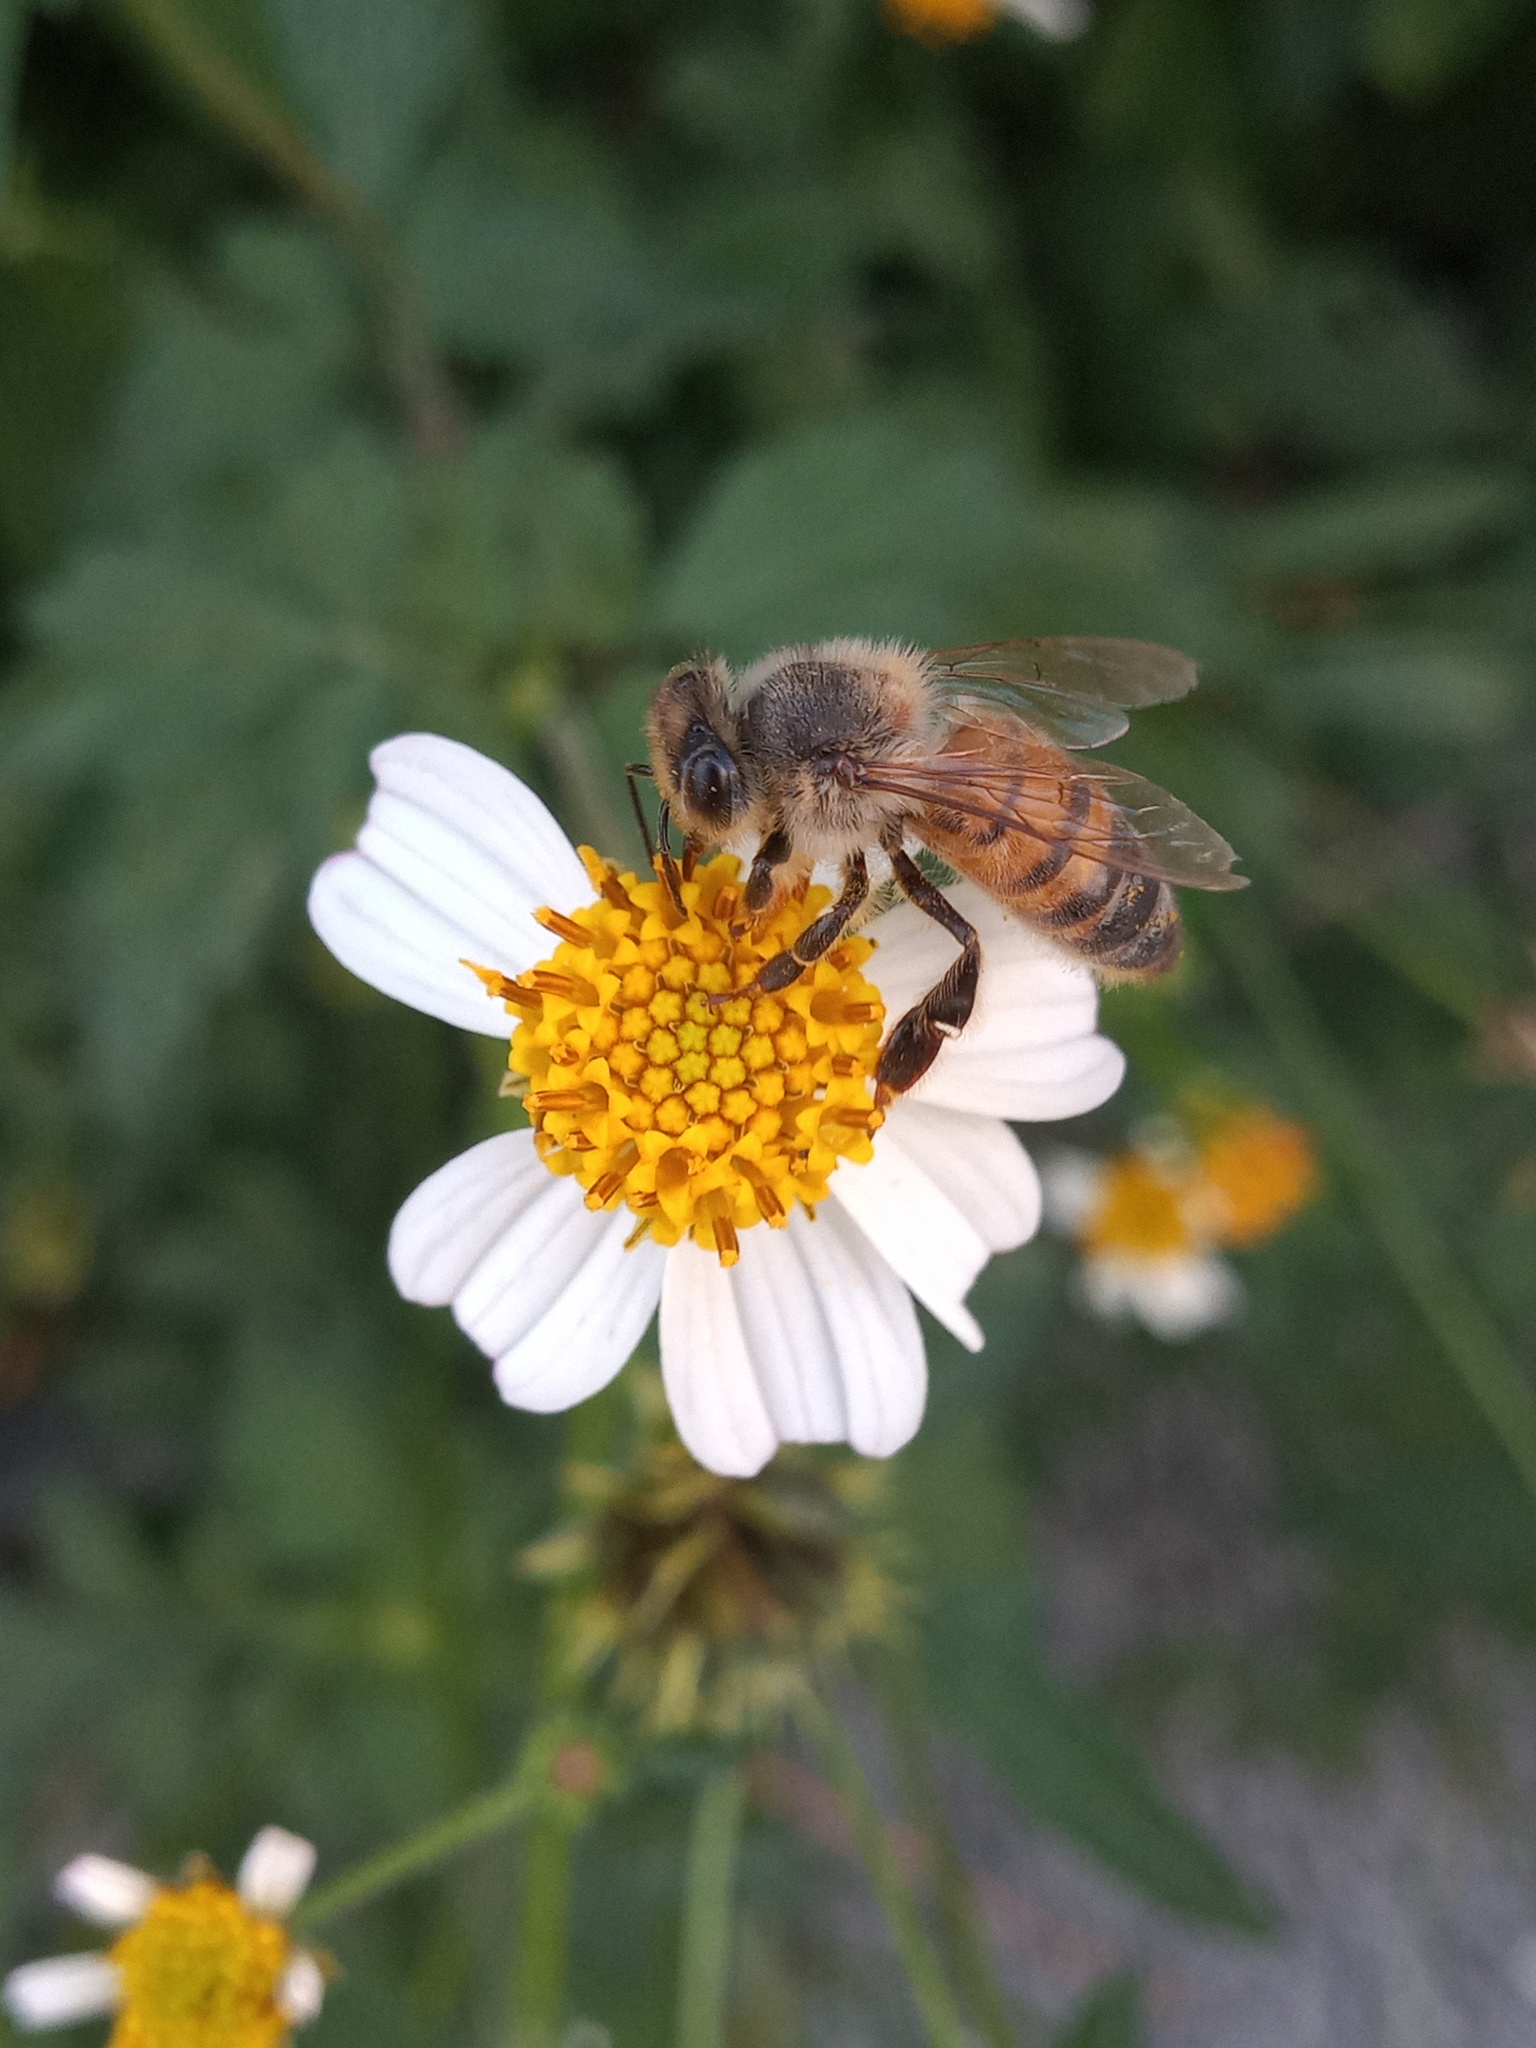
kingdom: Animalia
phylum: Arthropoda
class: Insecta
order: Hymenoptera
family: Apidae
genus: Apis
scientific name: Apis mellifera
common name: Honey bee
